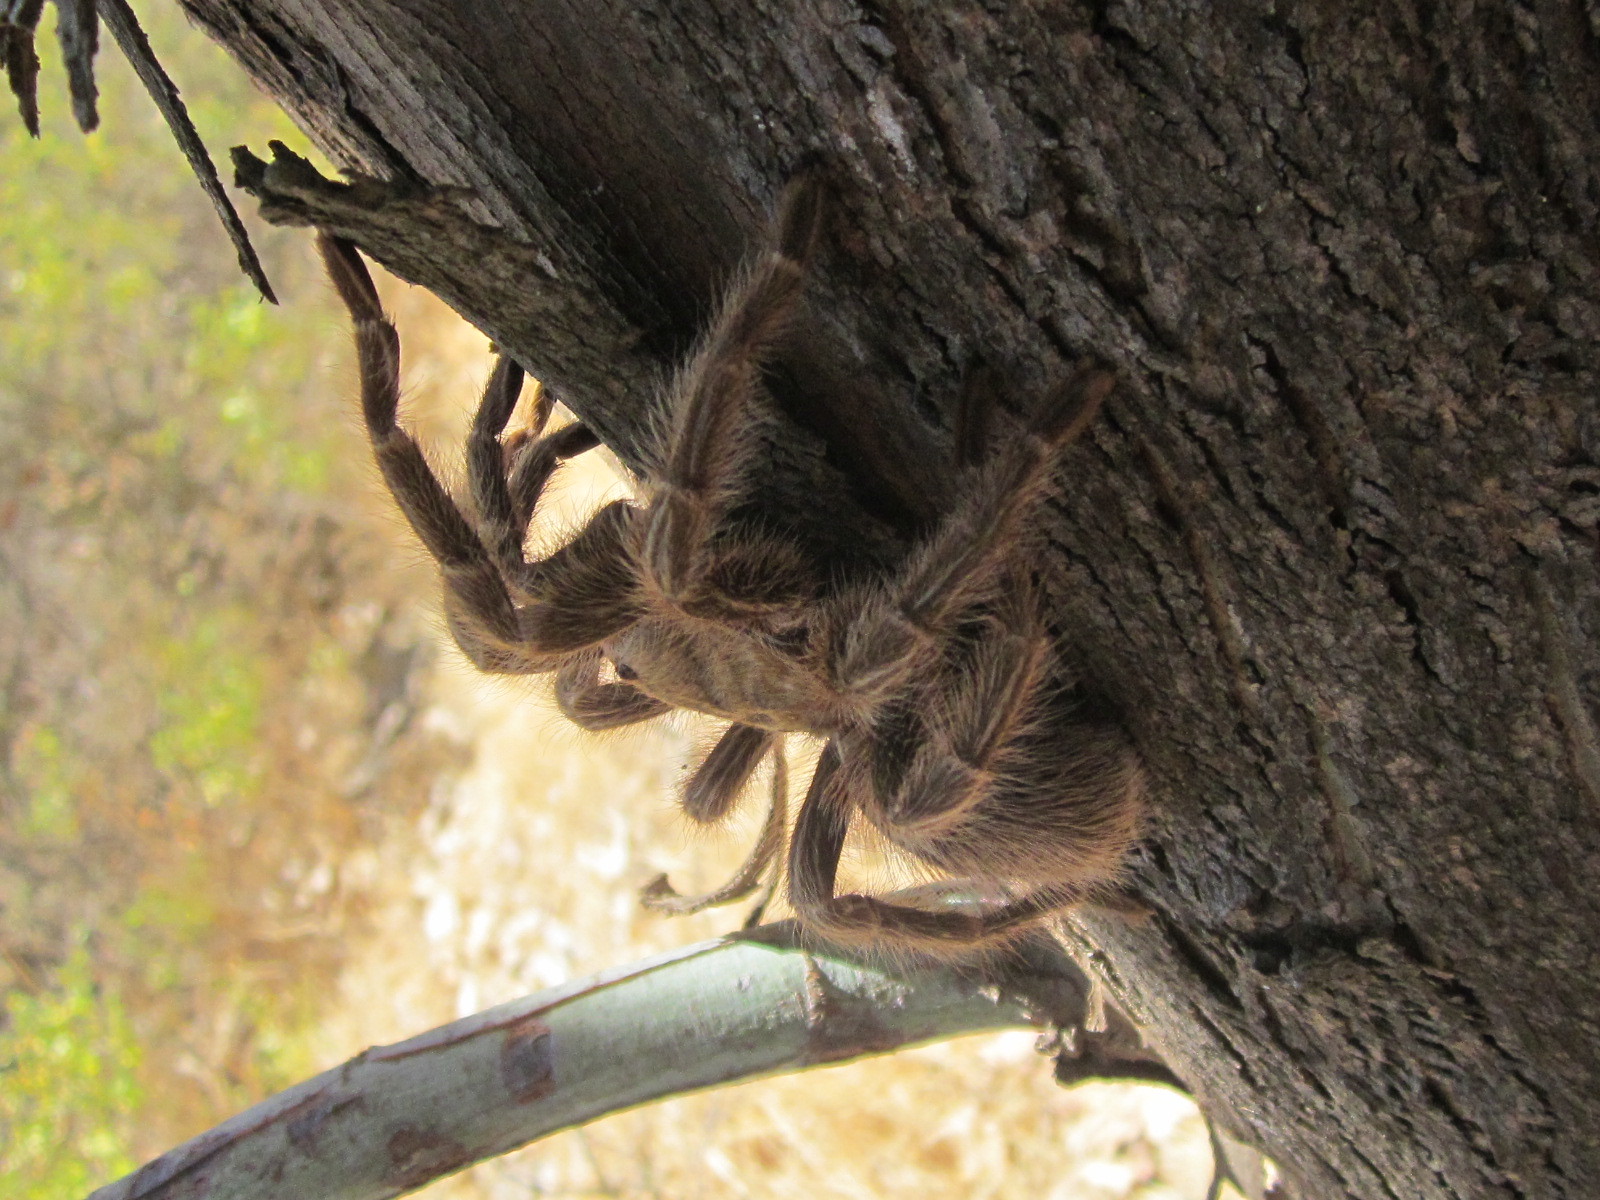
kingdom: Animalia
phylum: Arthropoda
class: Arachnida
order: Araneae
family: Theraphosidae
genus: Grammostola
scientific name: Grammostola rosea
